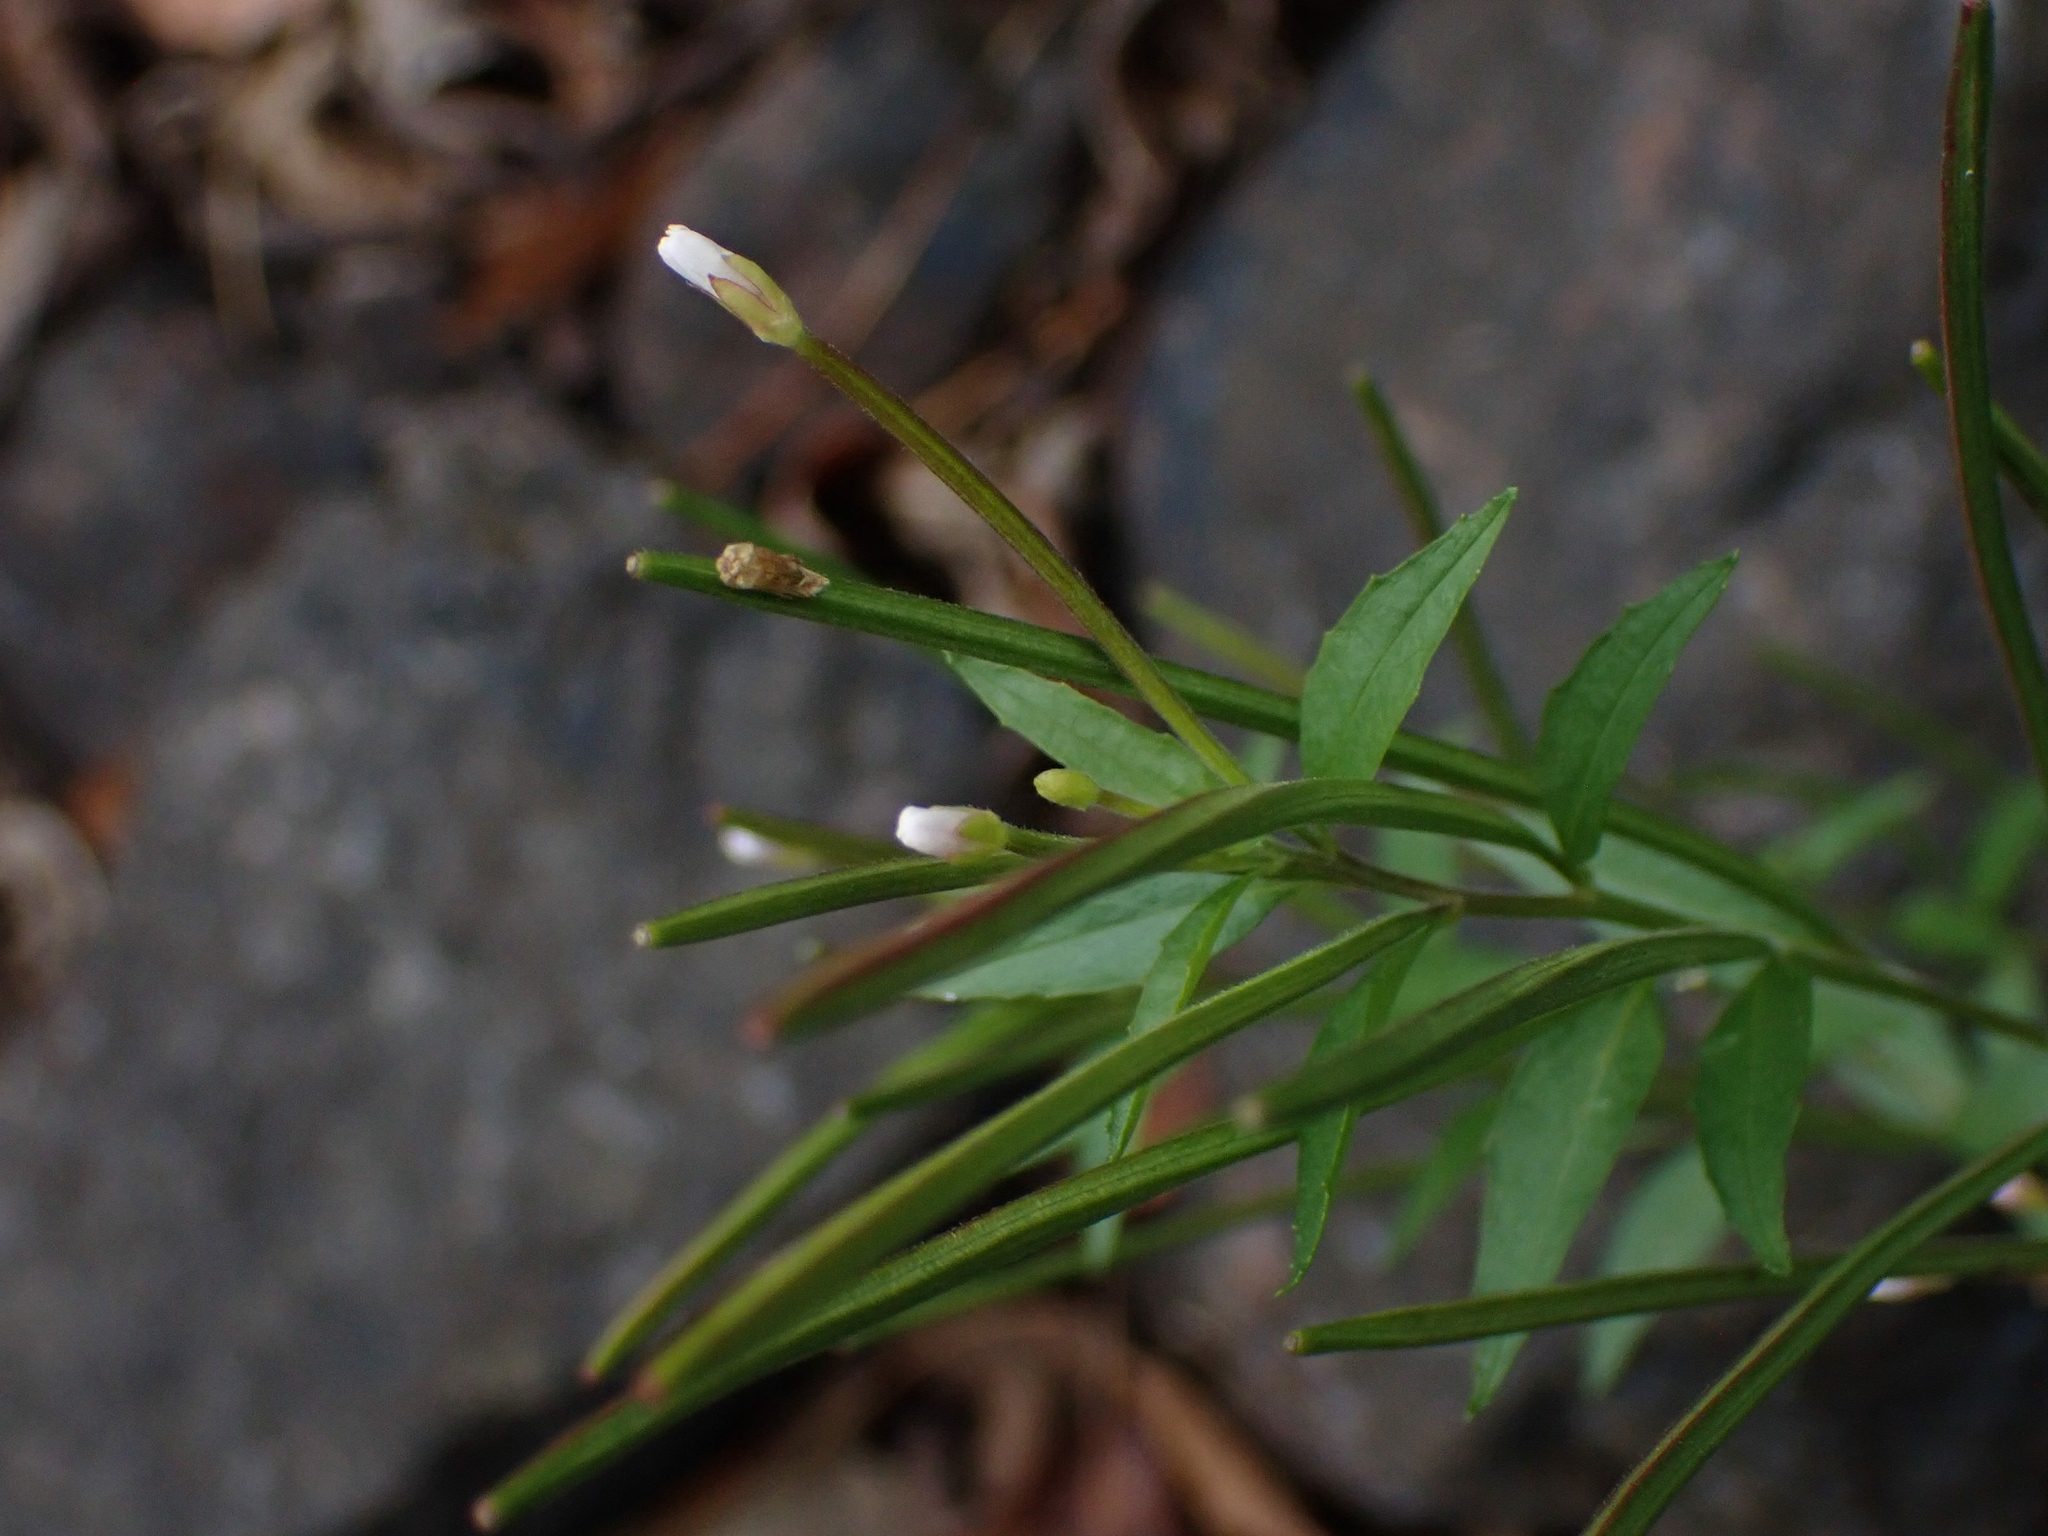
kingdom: Plantae
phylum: Tracheophyta
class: Magnoliopsida
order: Myrtales
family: Onagraceae
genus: Epilobium
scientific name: Epilobium ciliatum
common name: American willowherb
